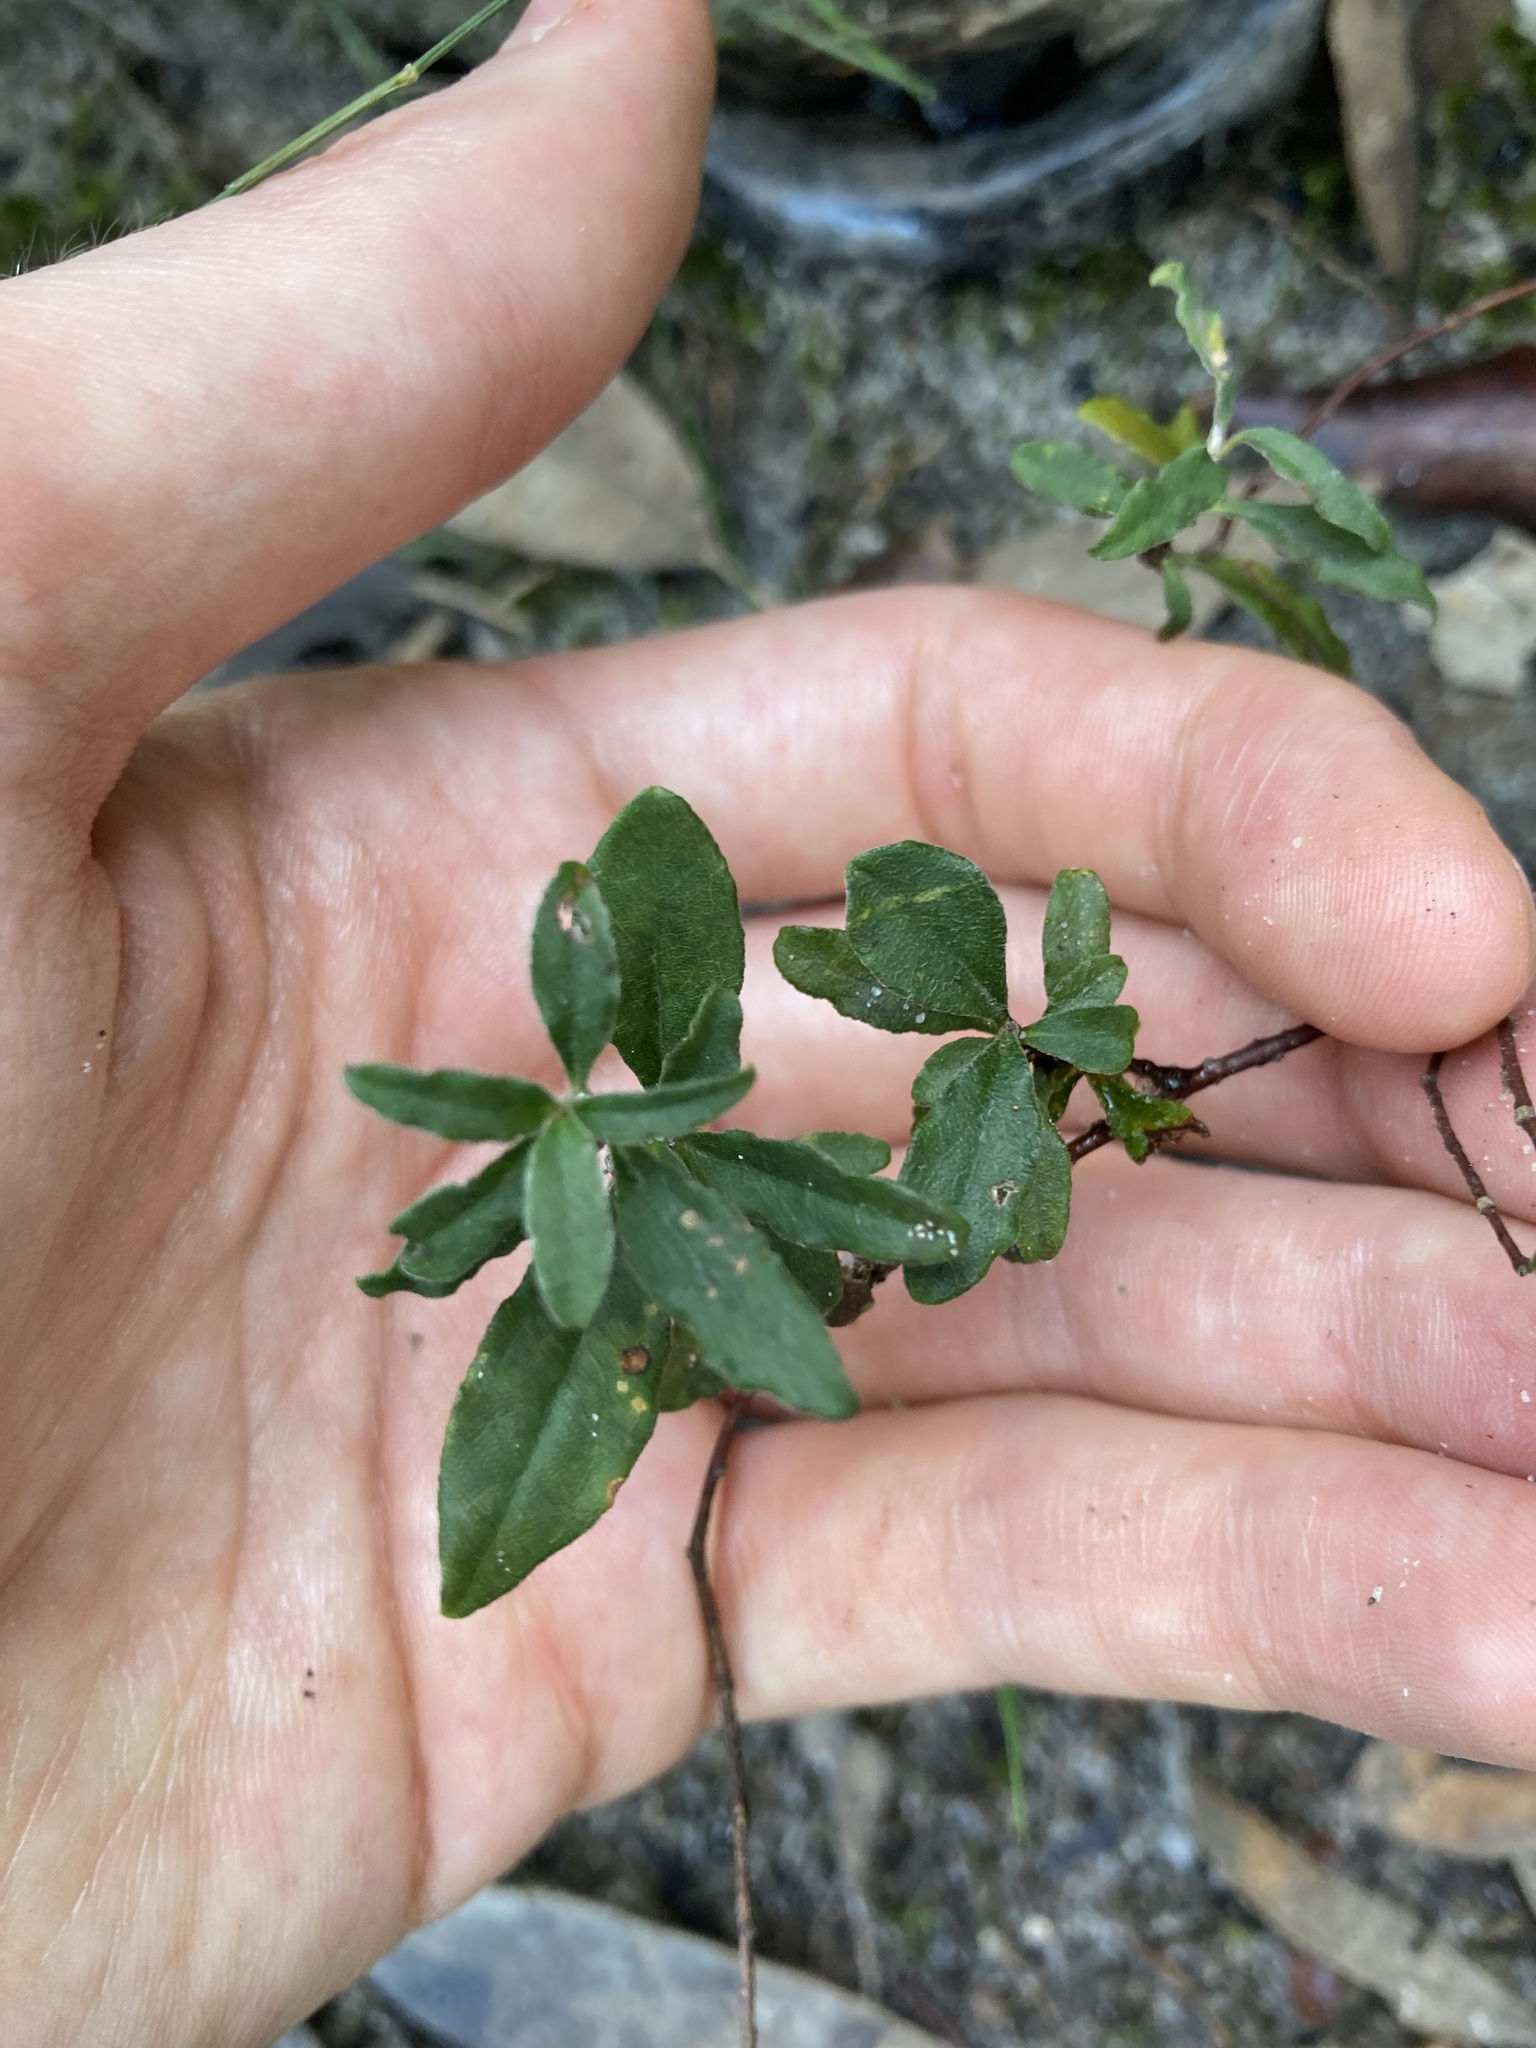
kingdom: Plantae
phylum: Tracheophyta
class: Magnoliopsida
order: Apiales
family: Pittosporaceae
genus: Billardiera
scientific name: Billardiera scandens
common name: Apple-berry
